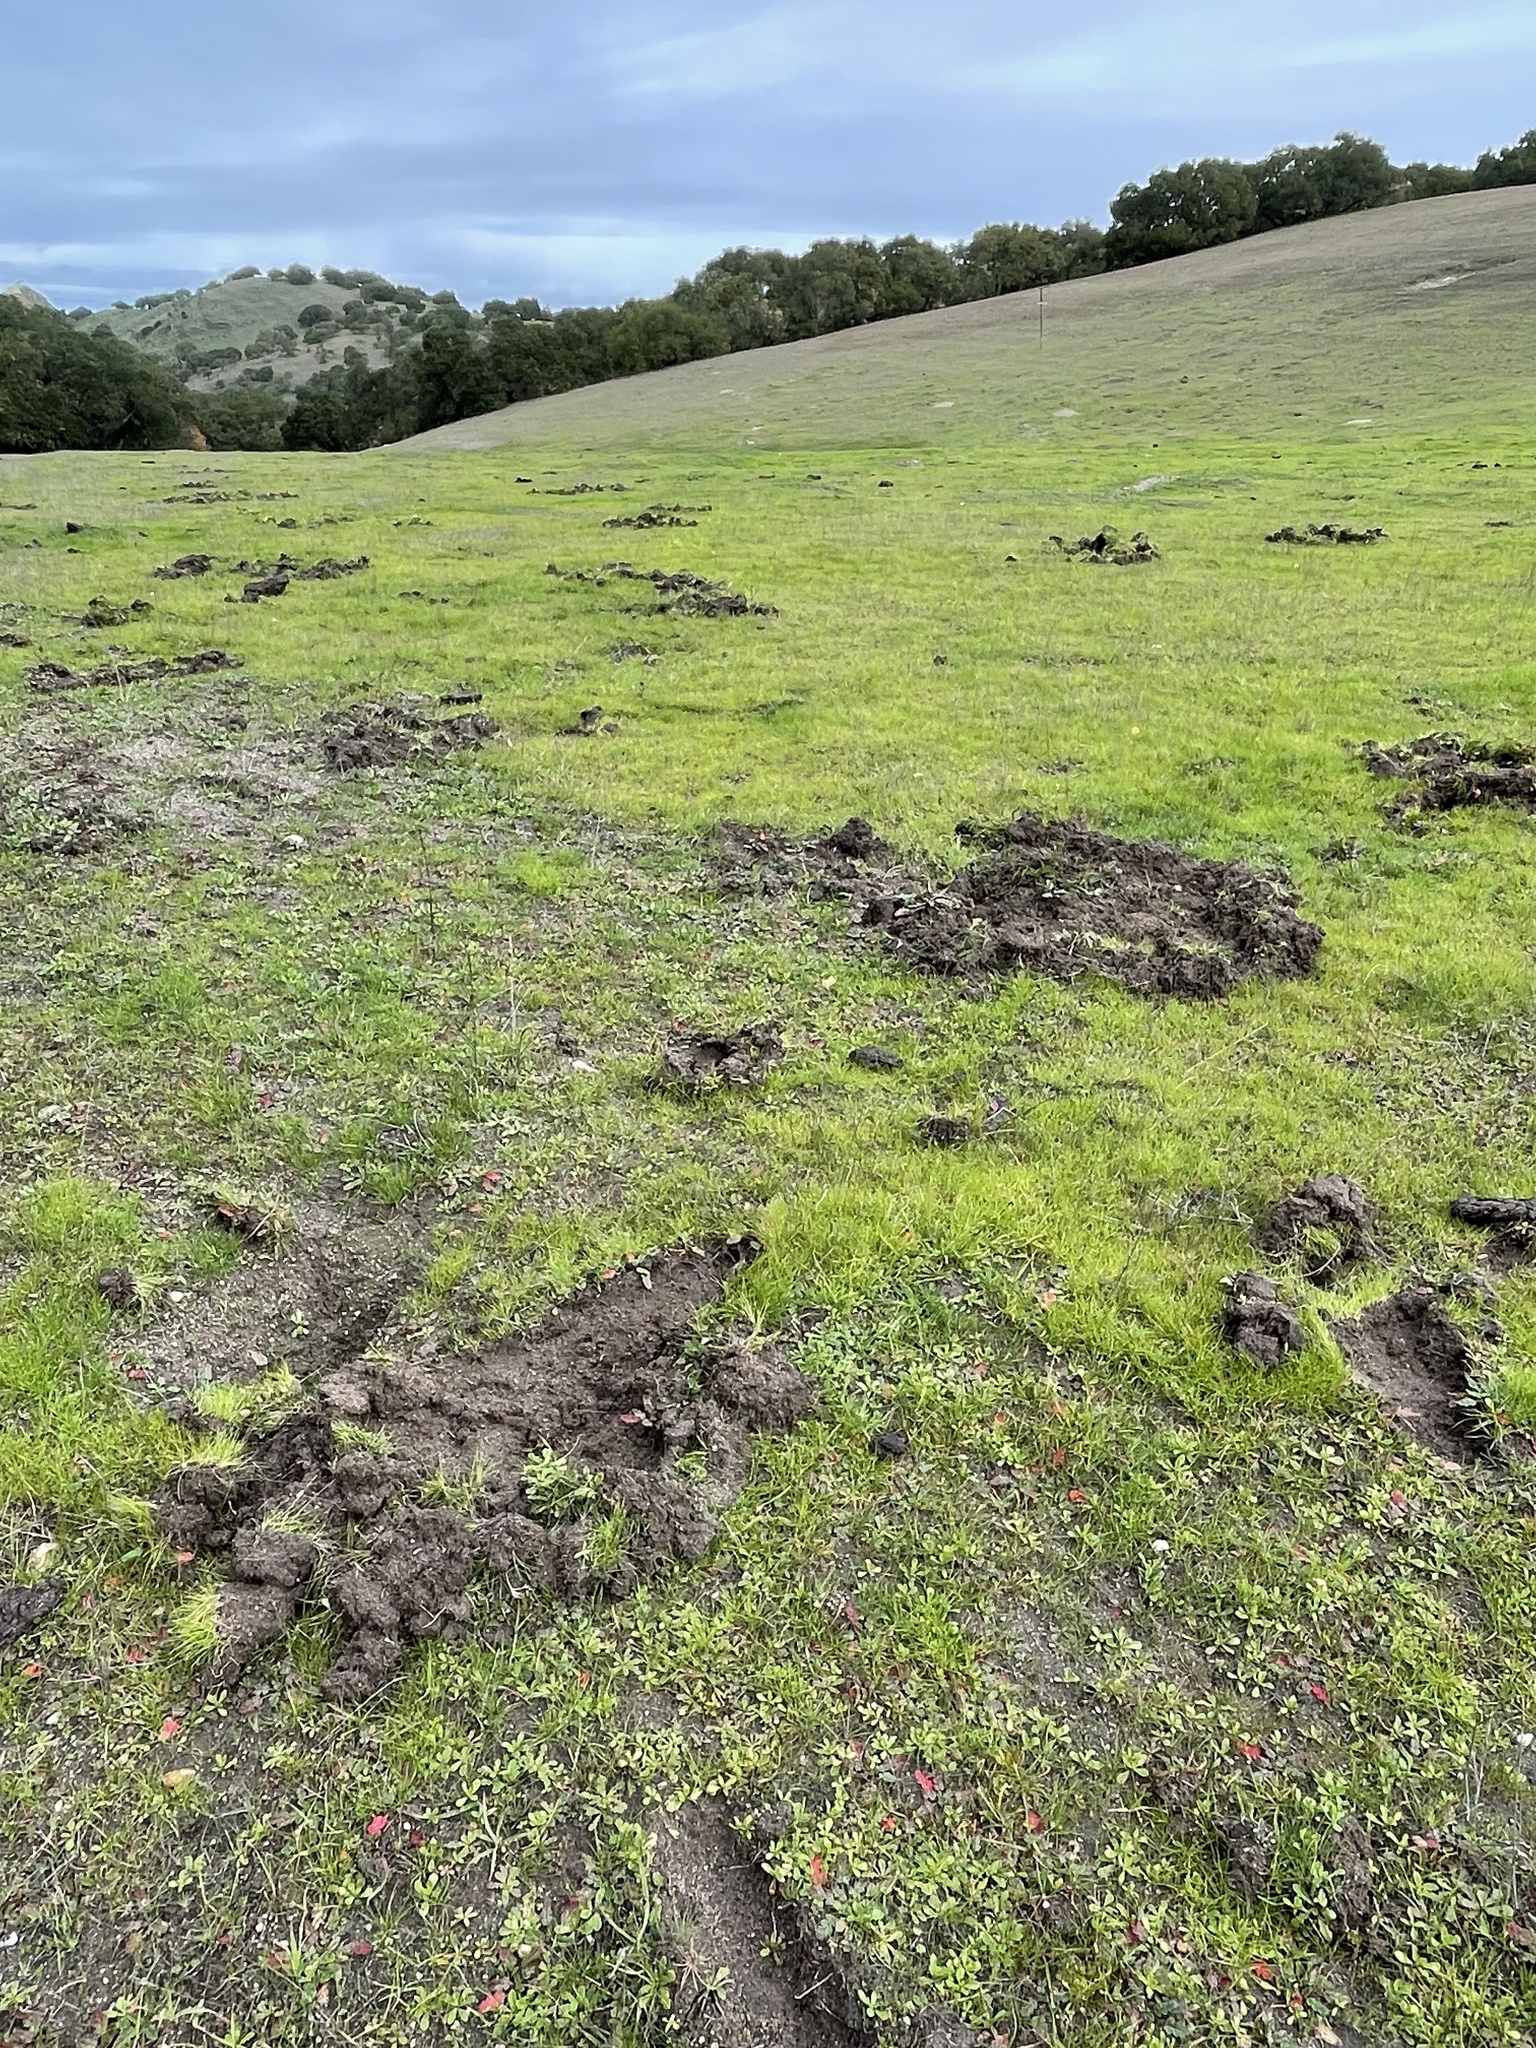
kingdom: Animalia
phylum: Chordata
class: Mammalia
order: Artiodactyla
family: Suidae
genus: Sus
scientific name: Sus scrofa
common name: Wild boar
